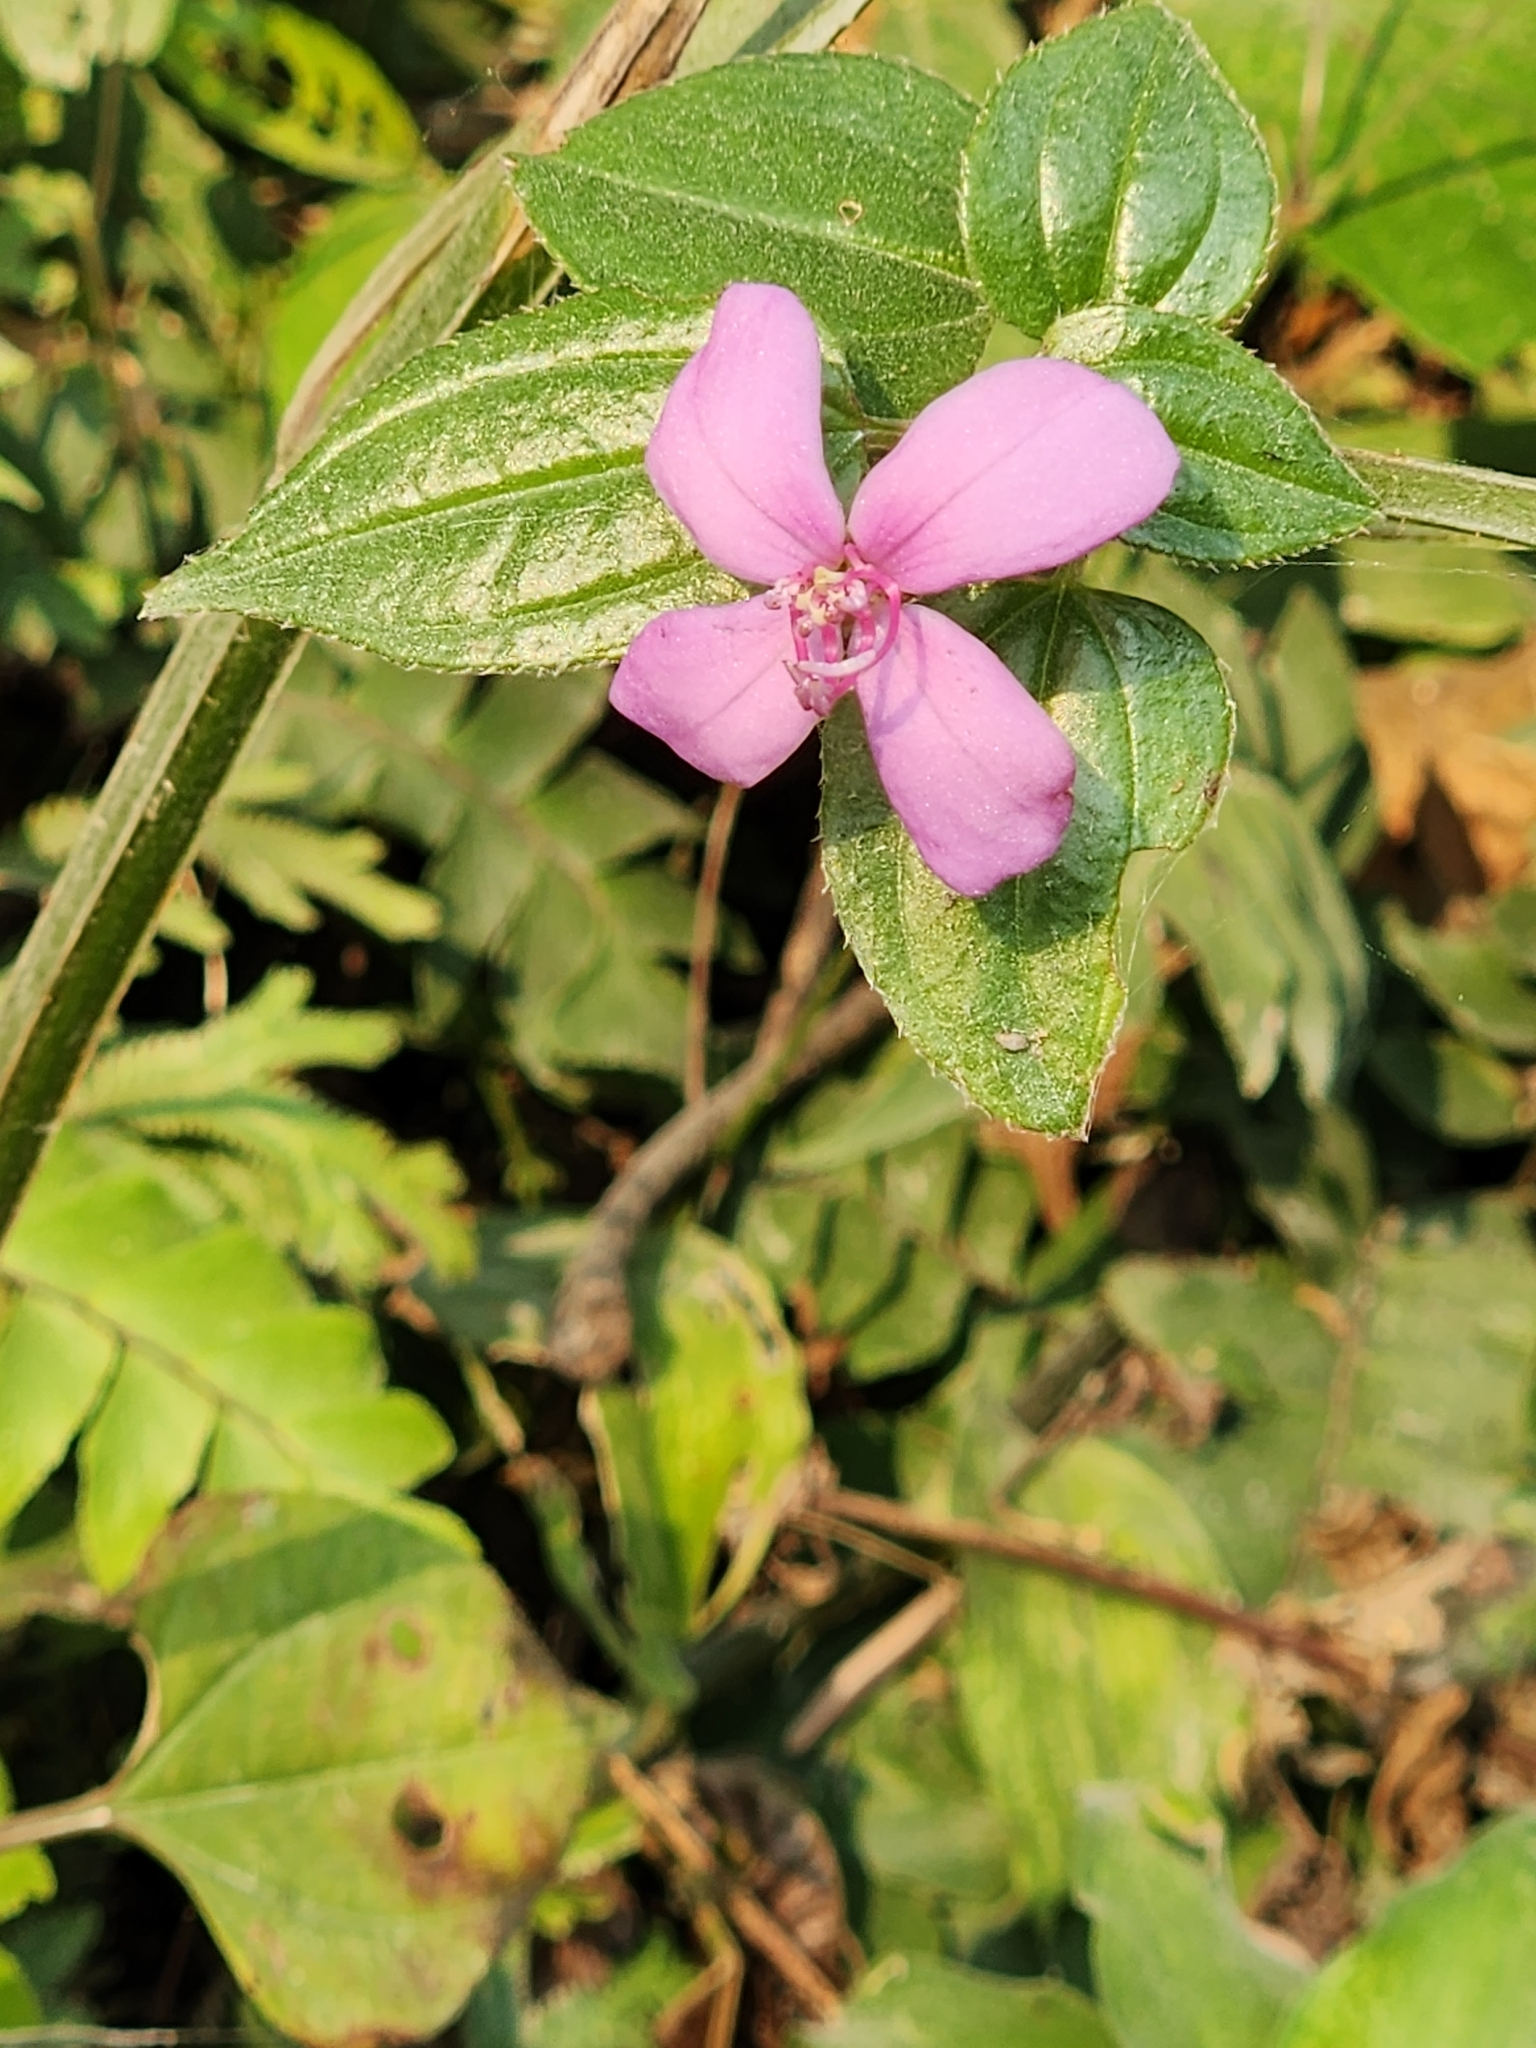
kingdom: Plantae
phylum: Tracheophyta
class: Magnoliopsida
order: Myrtales
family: Melastomataceae
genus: Arthrostemma
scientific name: Arthrostemma ciliatum
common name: Everblooming eavender
